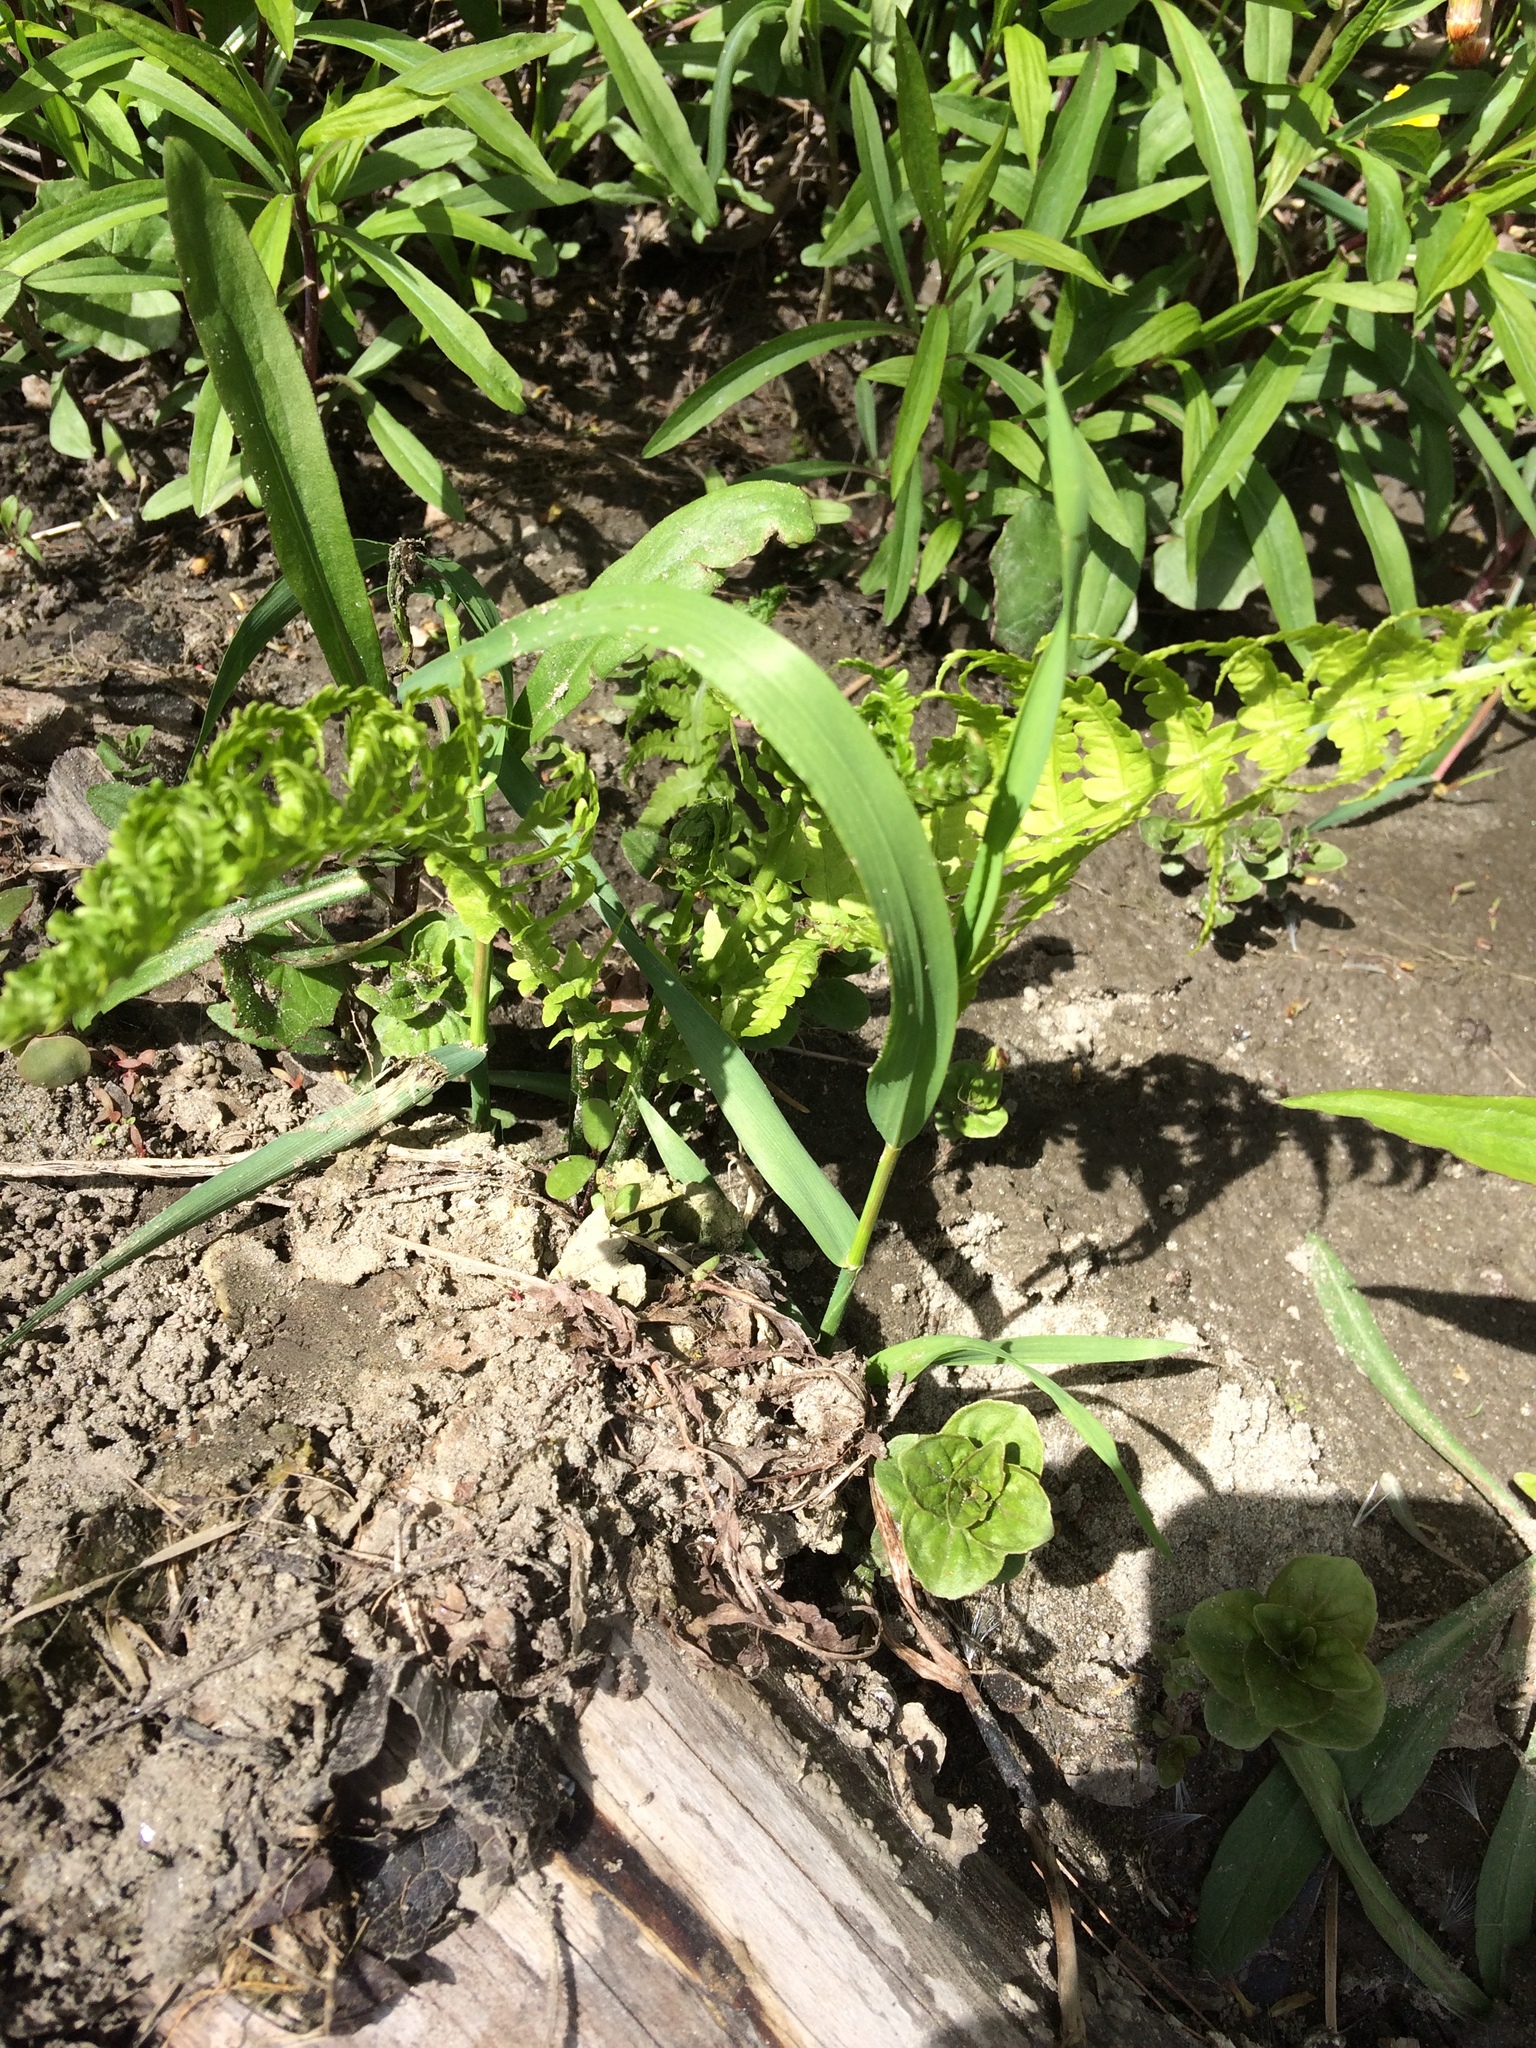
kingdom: Plantae
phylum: Tracheophyta
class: Polypodiopsida
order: Polypodiales
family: Onocleaceae
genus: Matteuccia
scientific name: Matteuccia struthiopteris
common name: Ostrich fern
